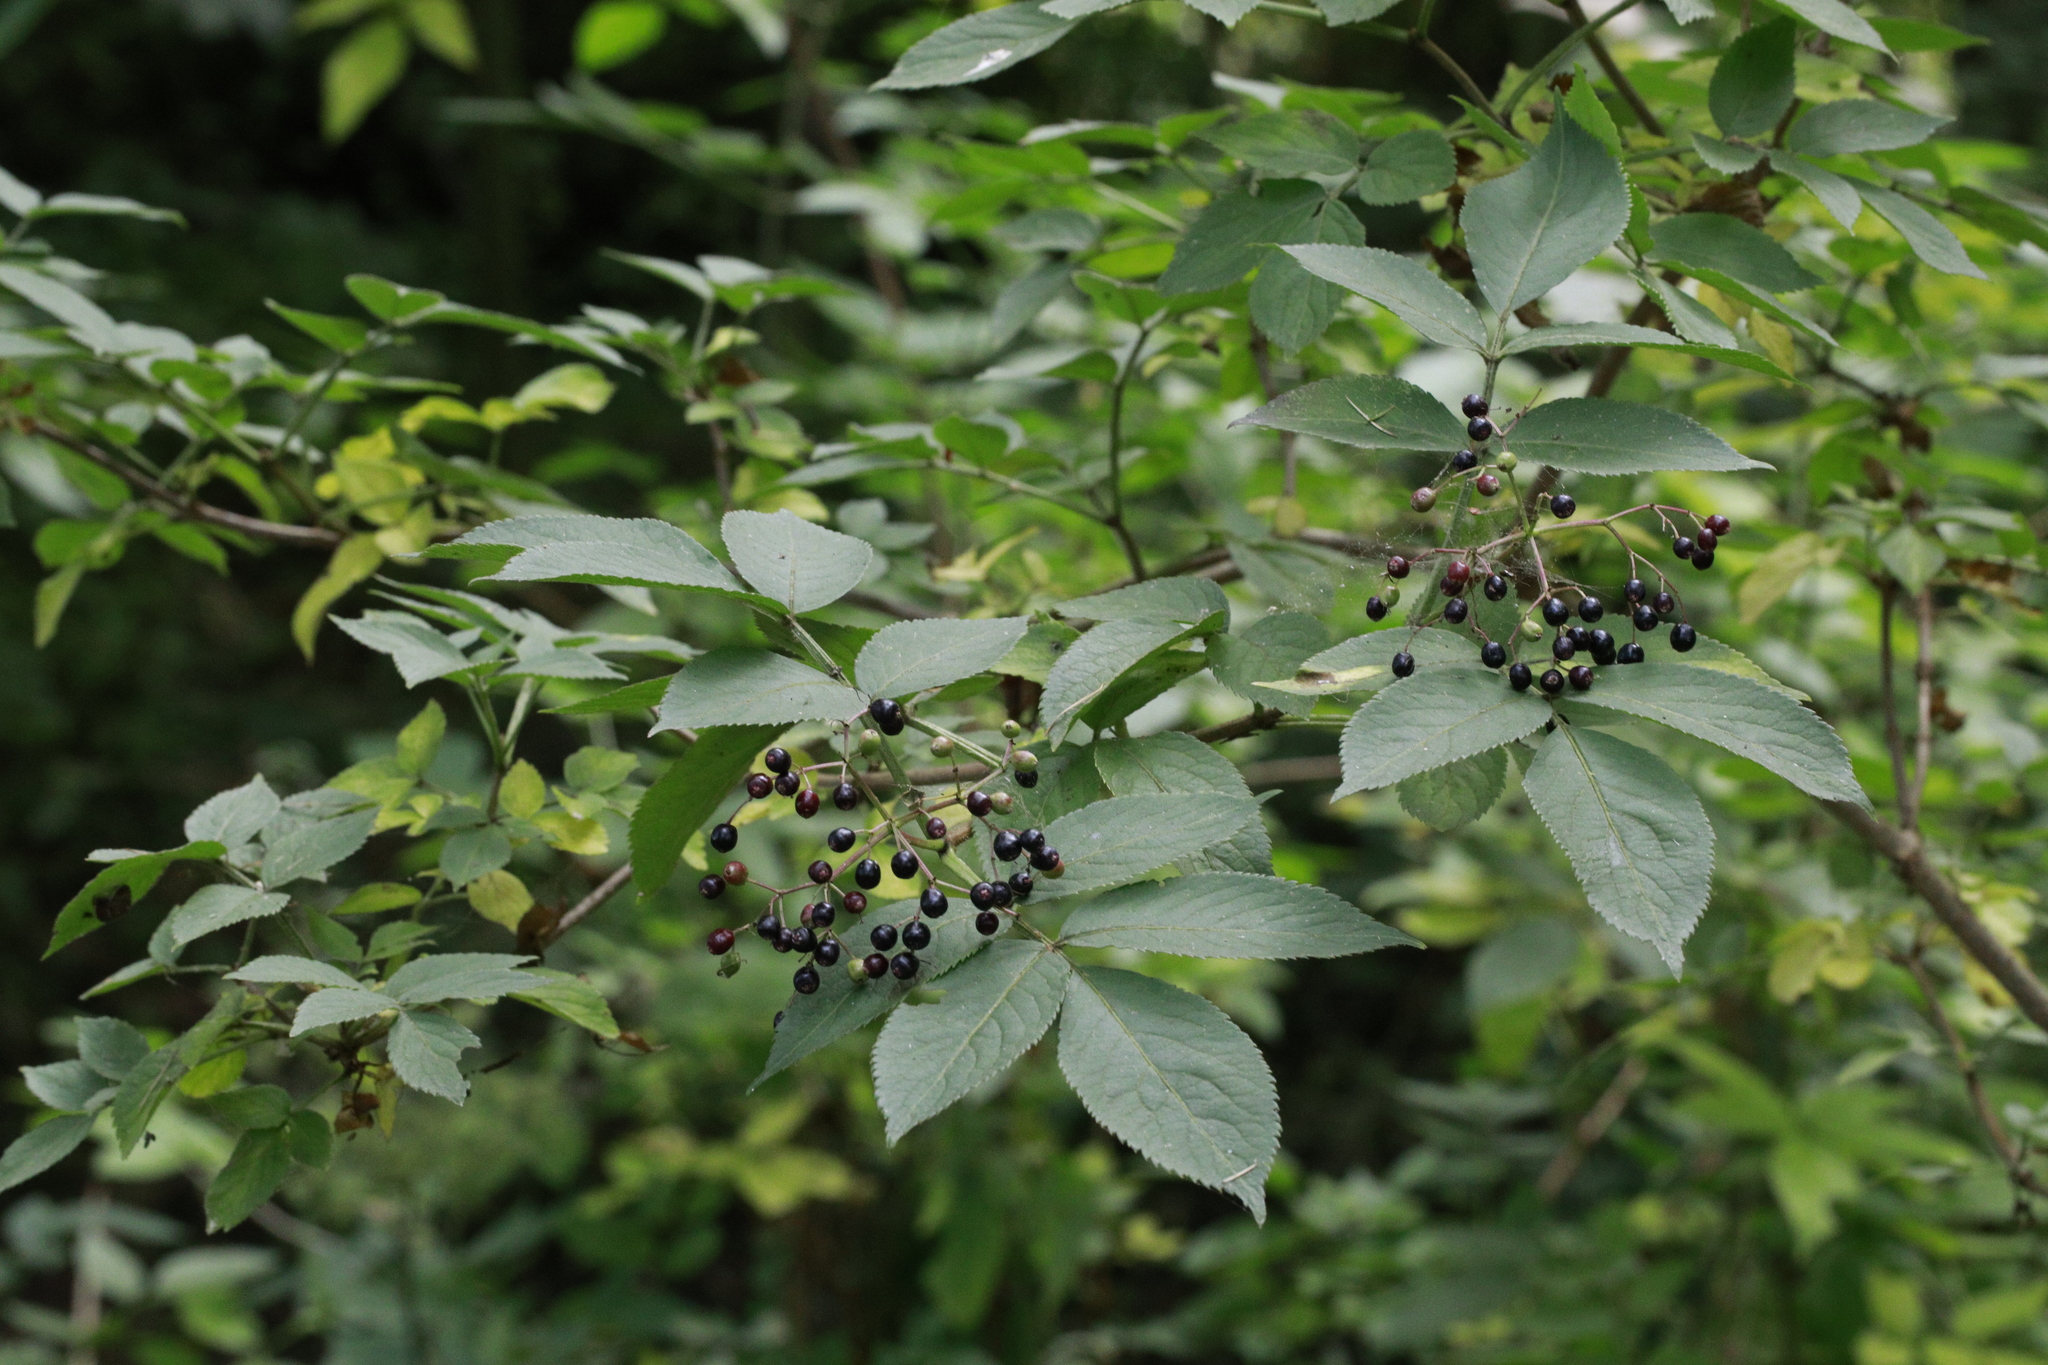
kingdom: Plantae
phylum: Tracheophyta
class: Magnoliopsida
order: Dipsacales
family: Viburnaceae
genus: Sambucus
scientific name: Sambucus nigra
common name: Elder
